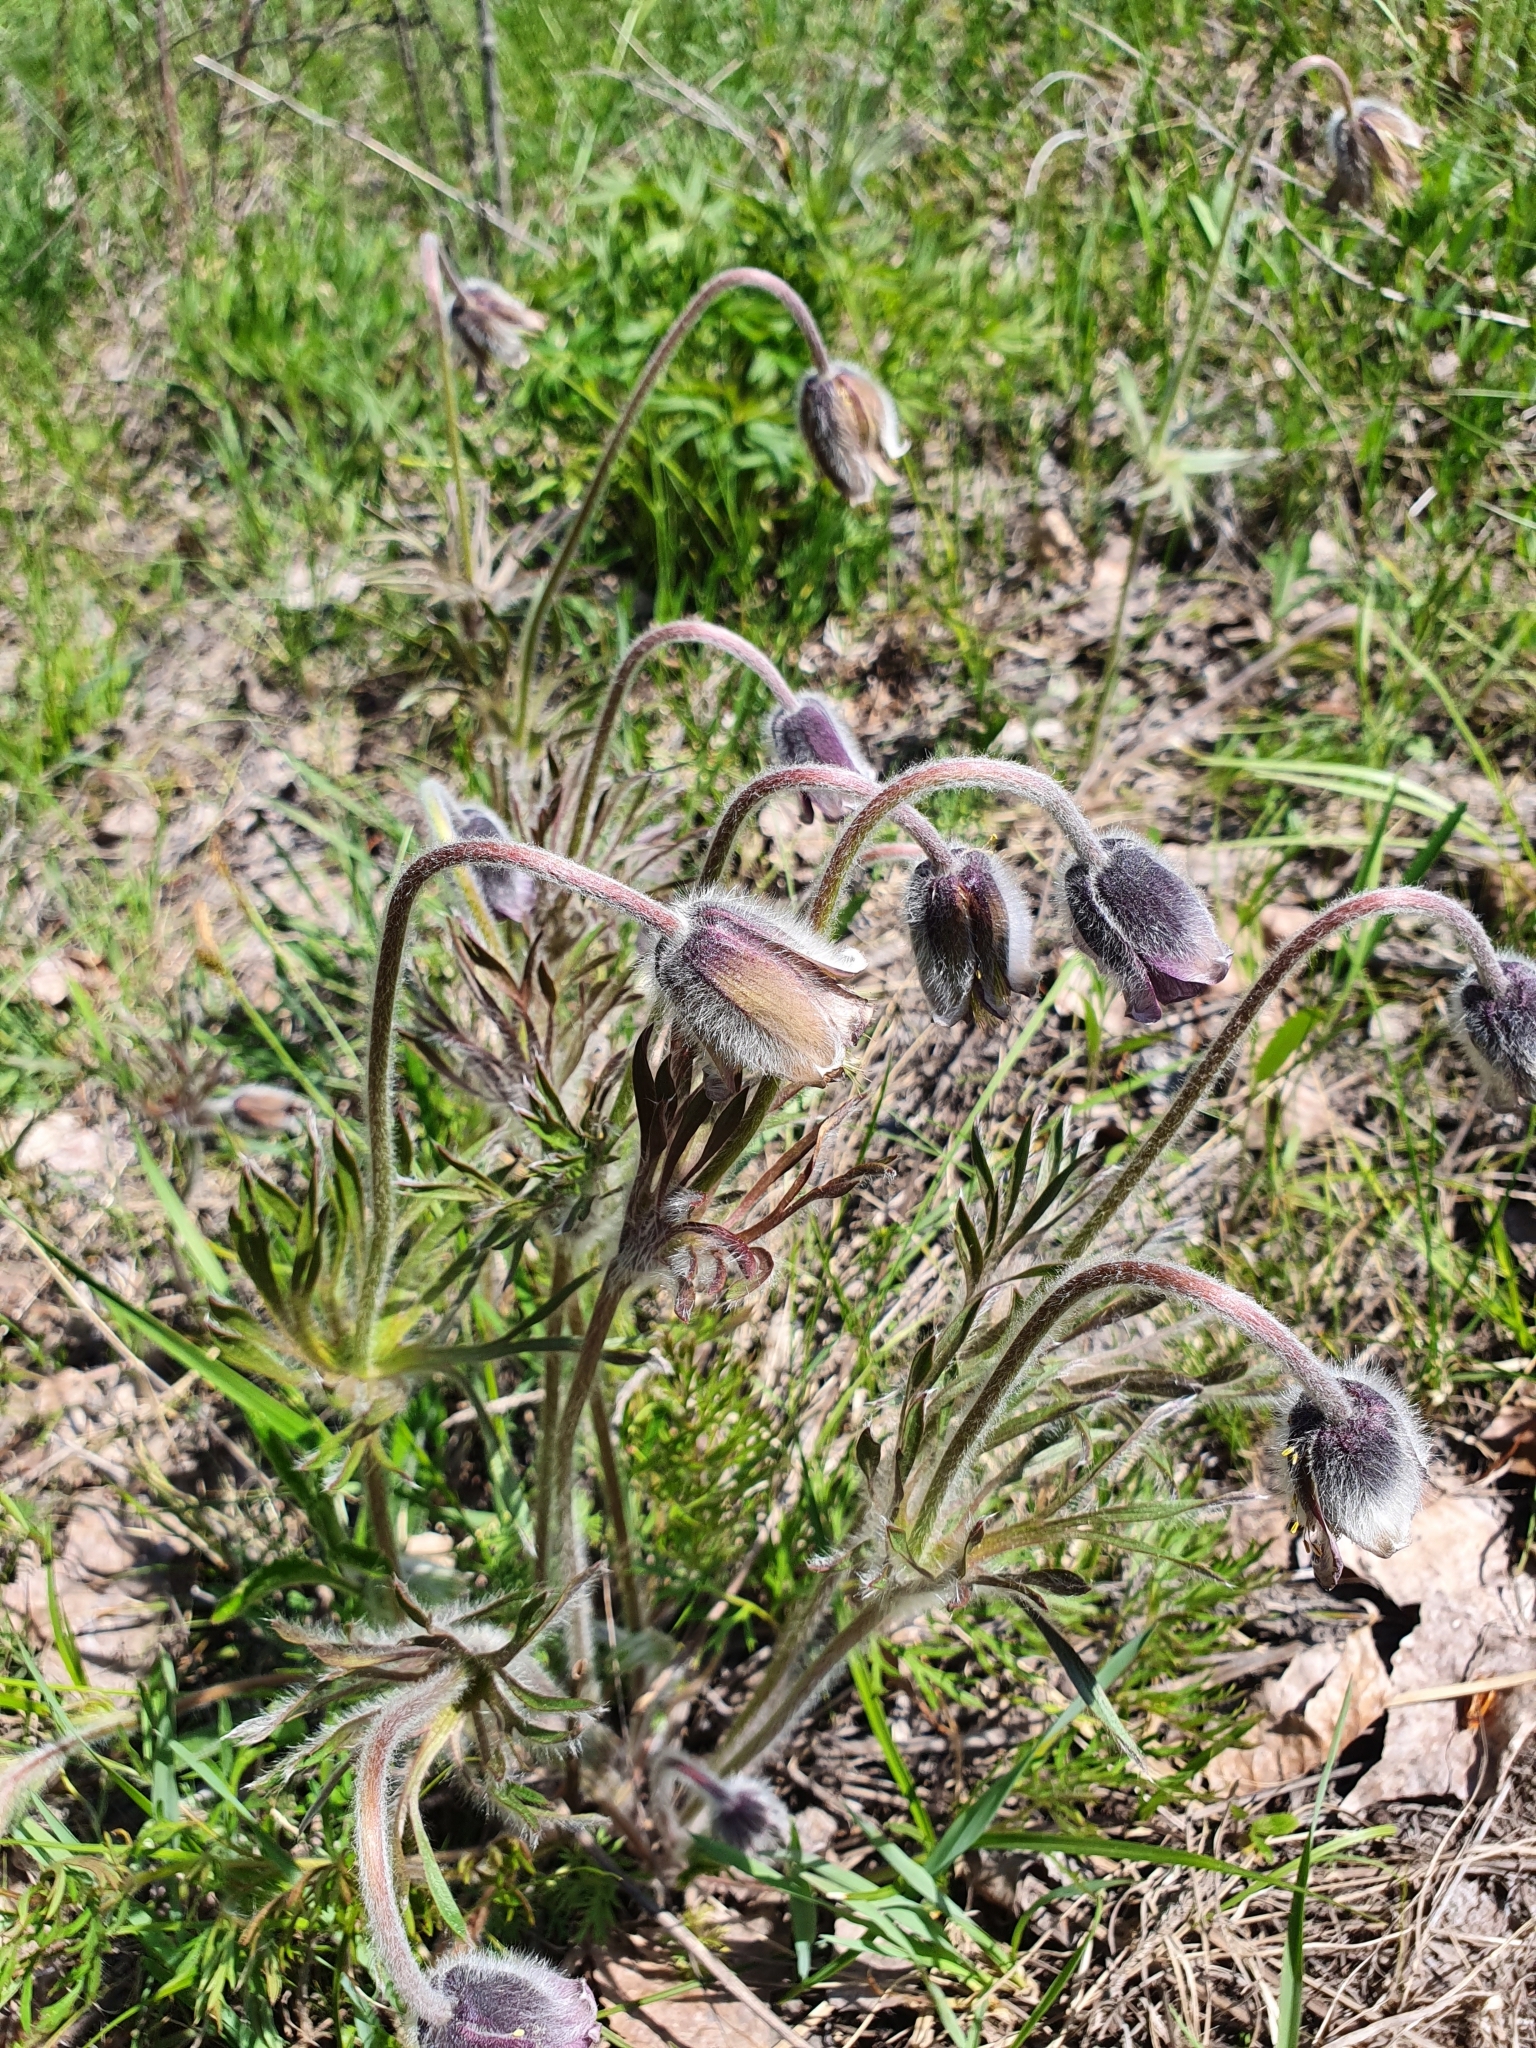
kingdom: Plantae
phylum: Tracheophyta
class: Magnoliopsida
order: Ranunculales
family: Ranunculaceae
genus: Pulsatilla
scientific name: Pulsatilla pratensis
